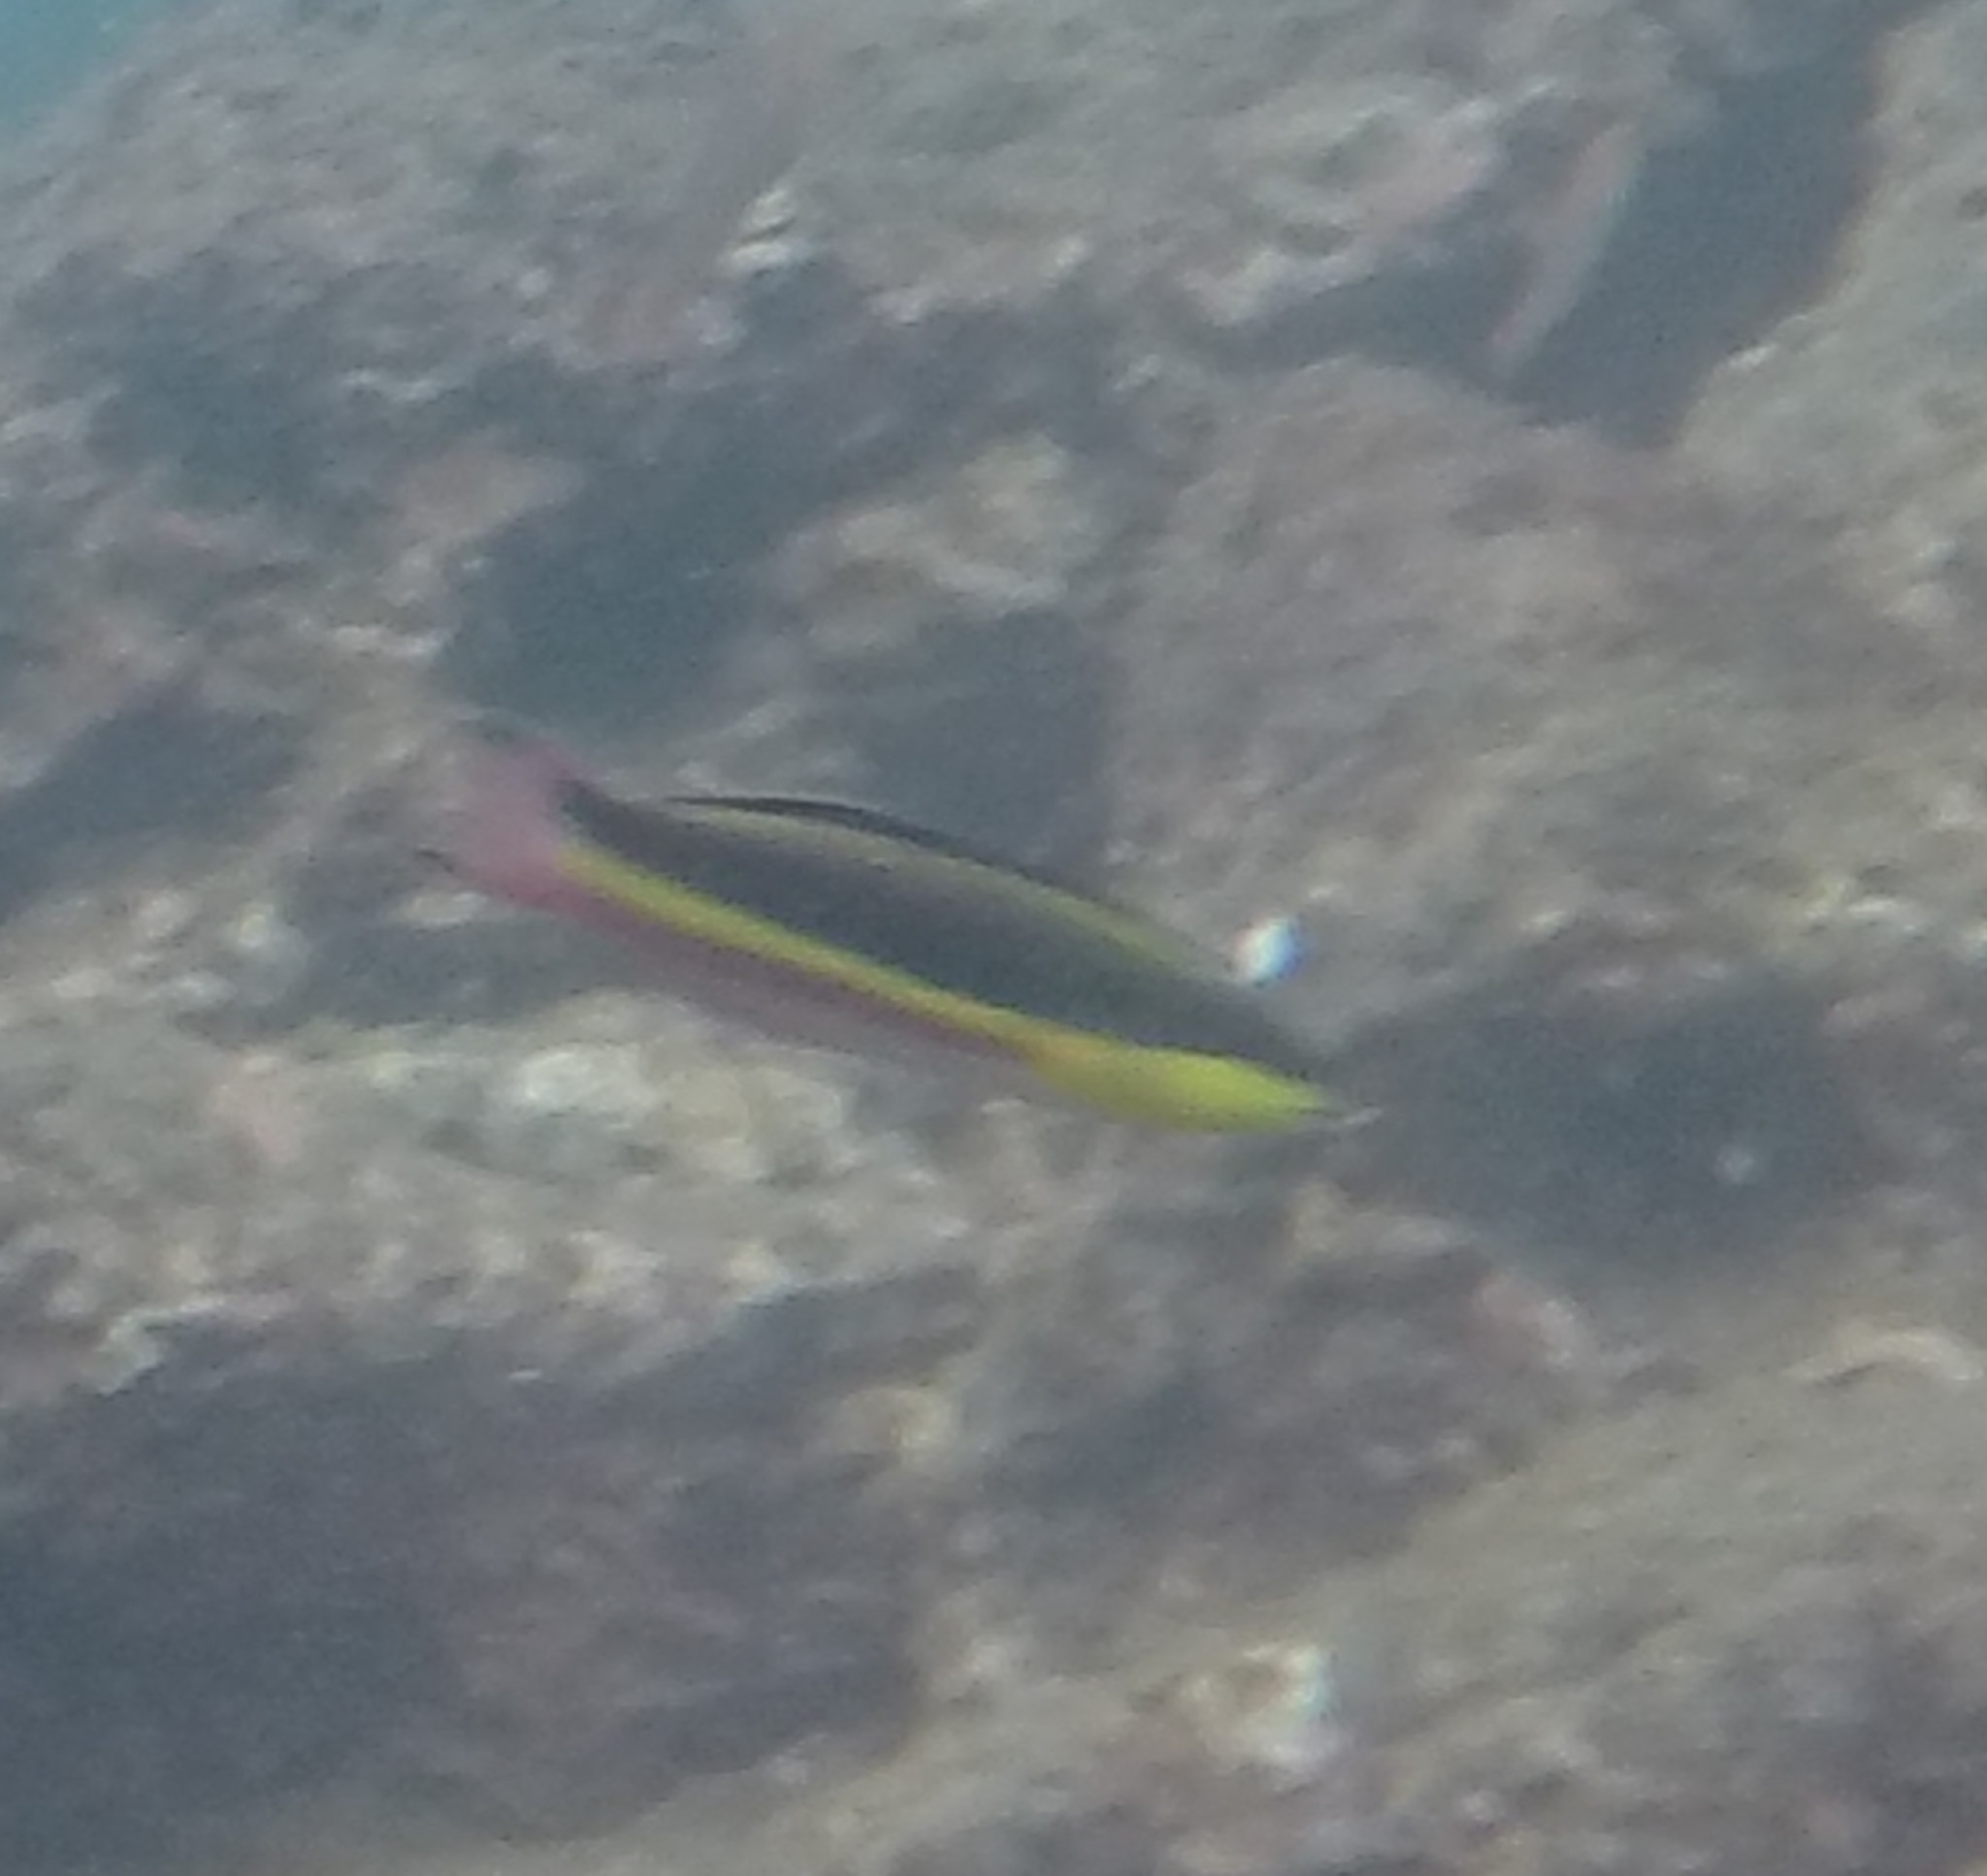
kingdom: Animalia
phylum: Chordata
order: Perciformes
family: Labridae
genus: Thalassoma
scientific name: Thalassoma lucasanum
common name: Cortez rainbow wrasse
